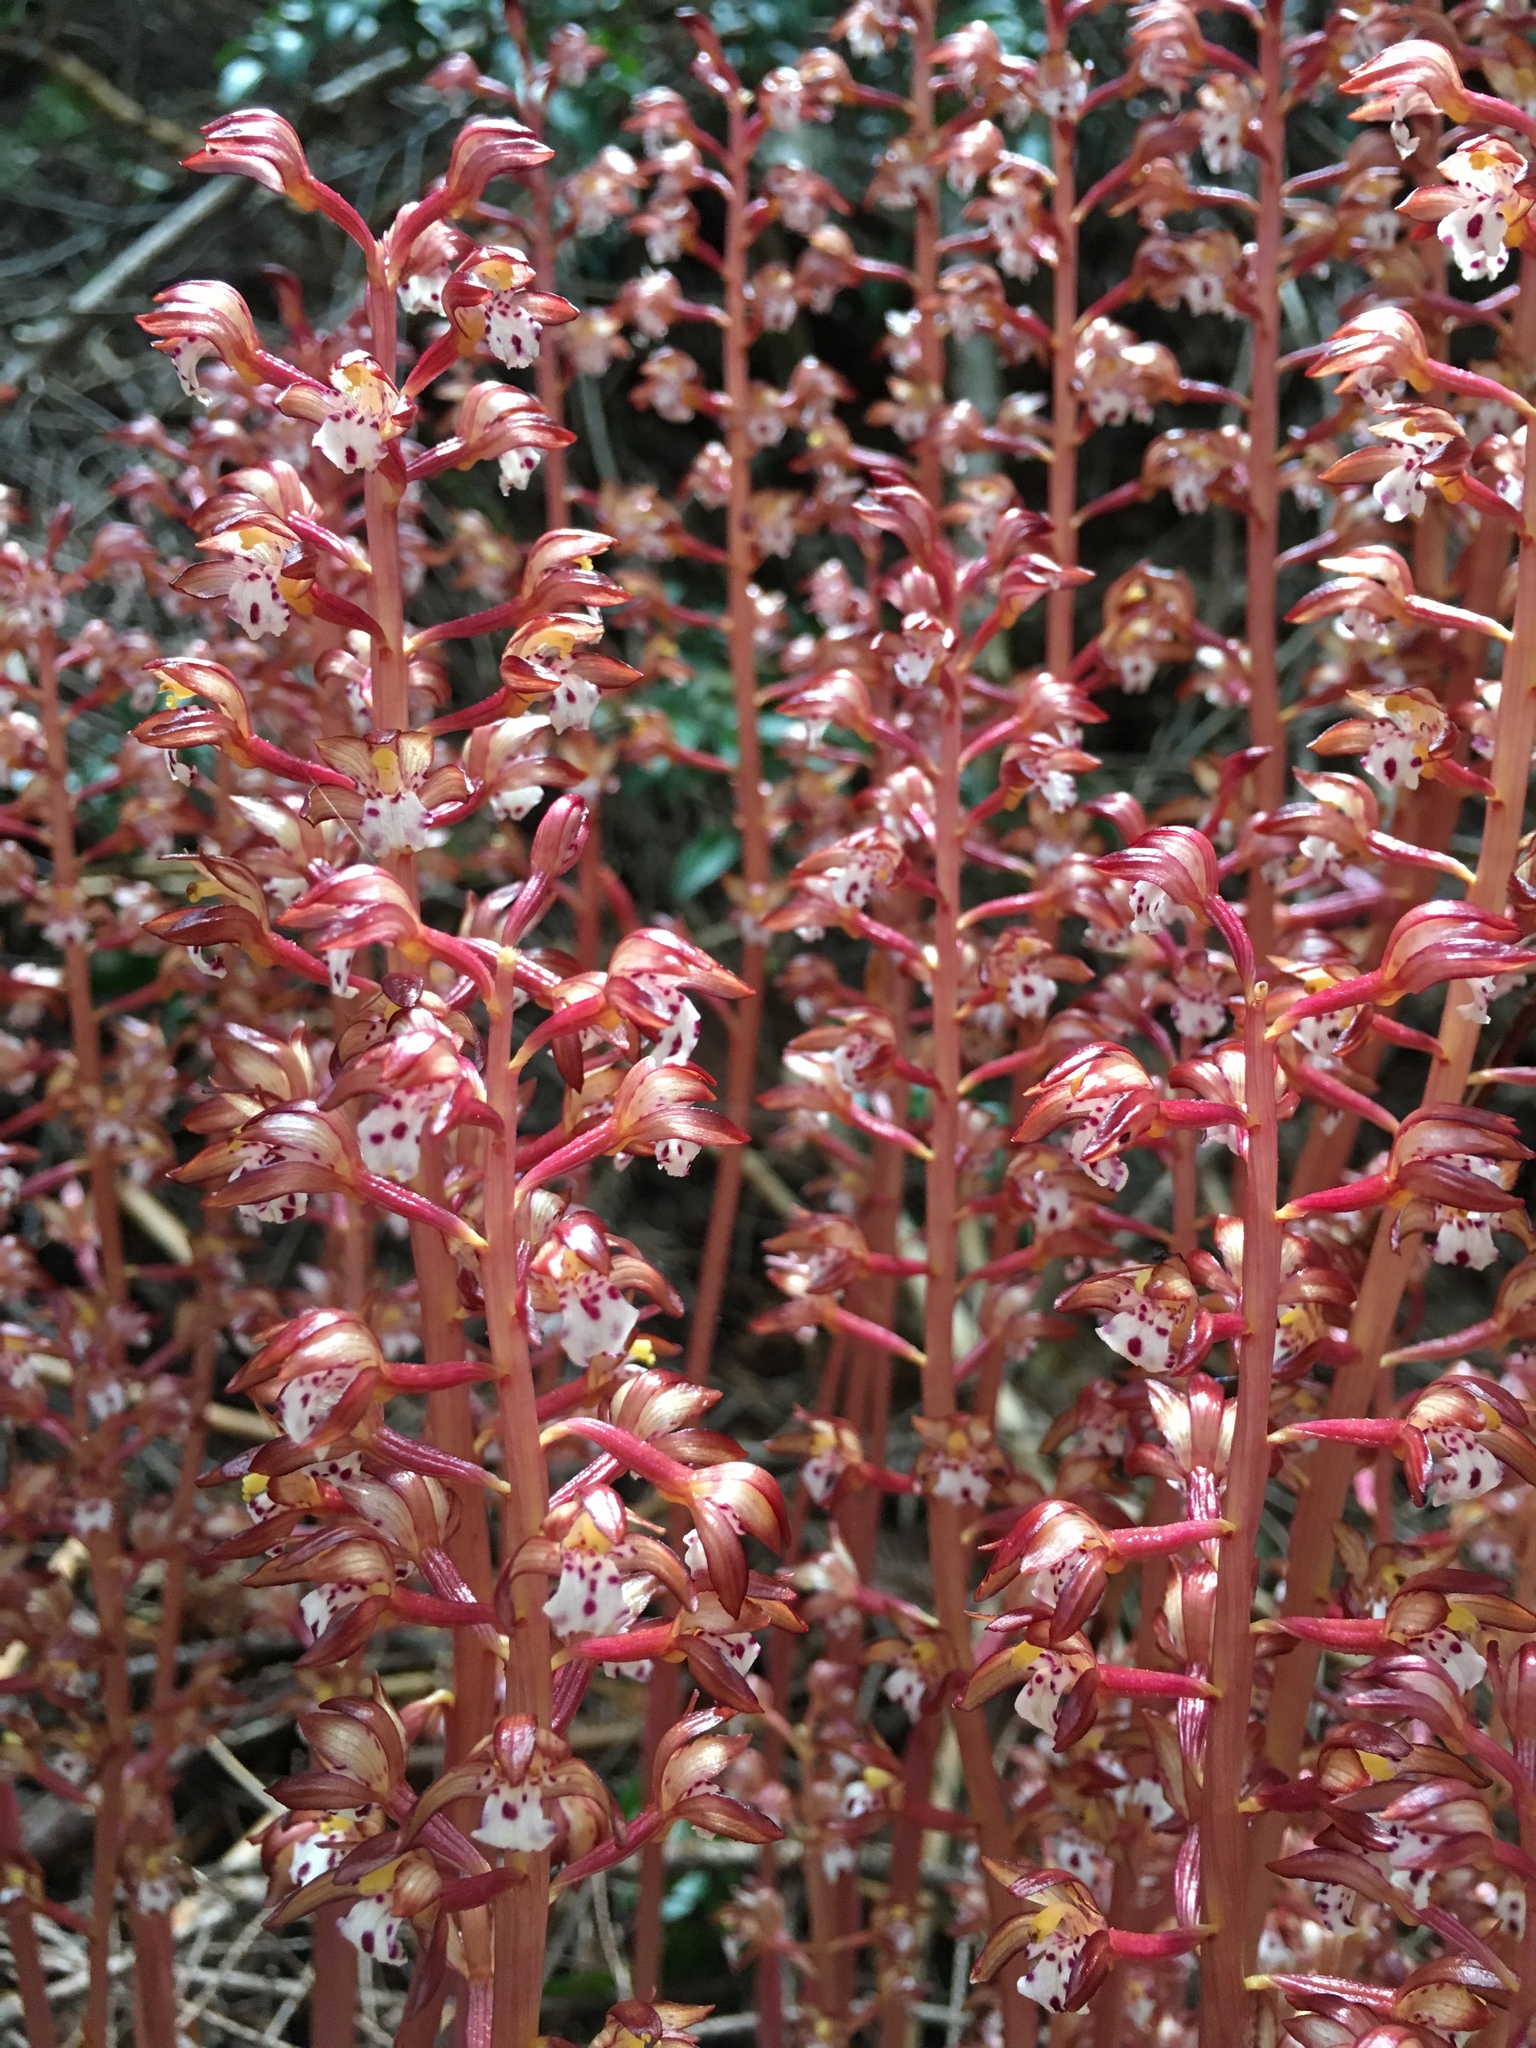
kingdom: Plantae
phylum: Tracheophyta
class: Liliopsida
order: Asparagales
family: Orchidaceae
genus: Corallorhiza
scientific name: Corallorhiza maculata
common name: Spotted coralroot
